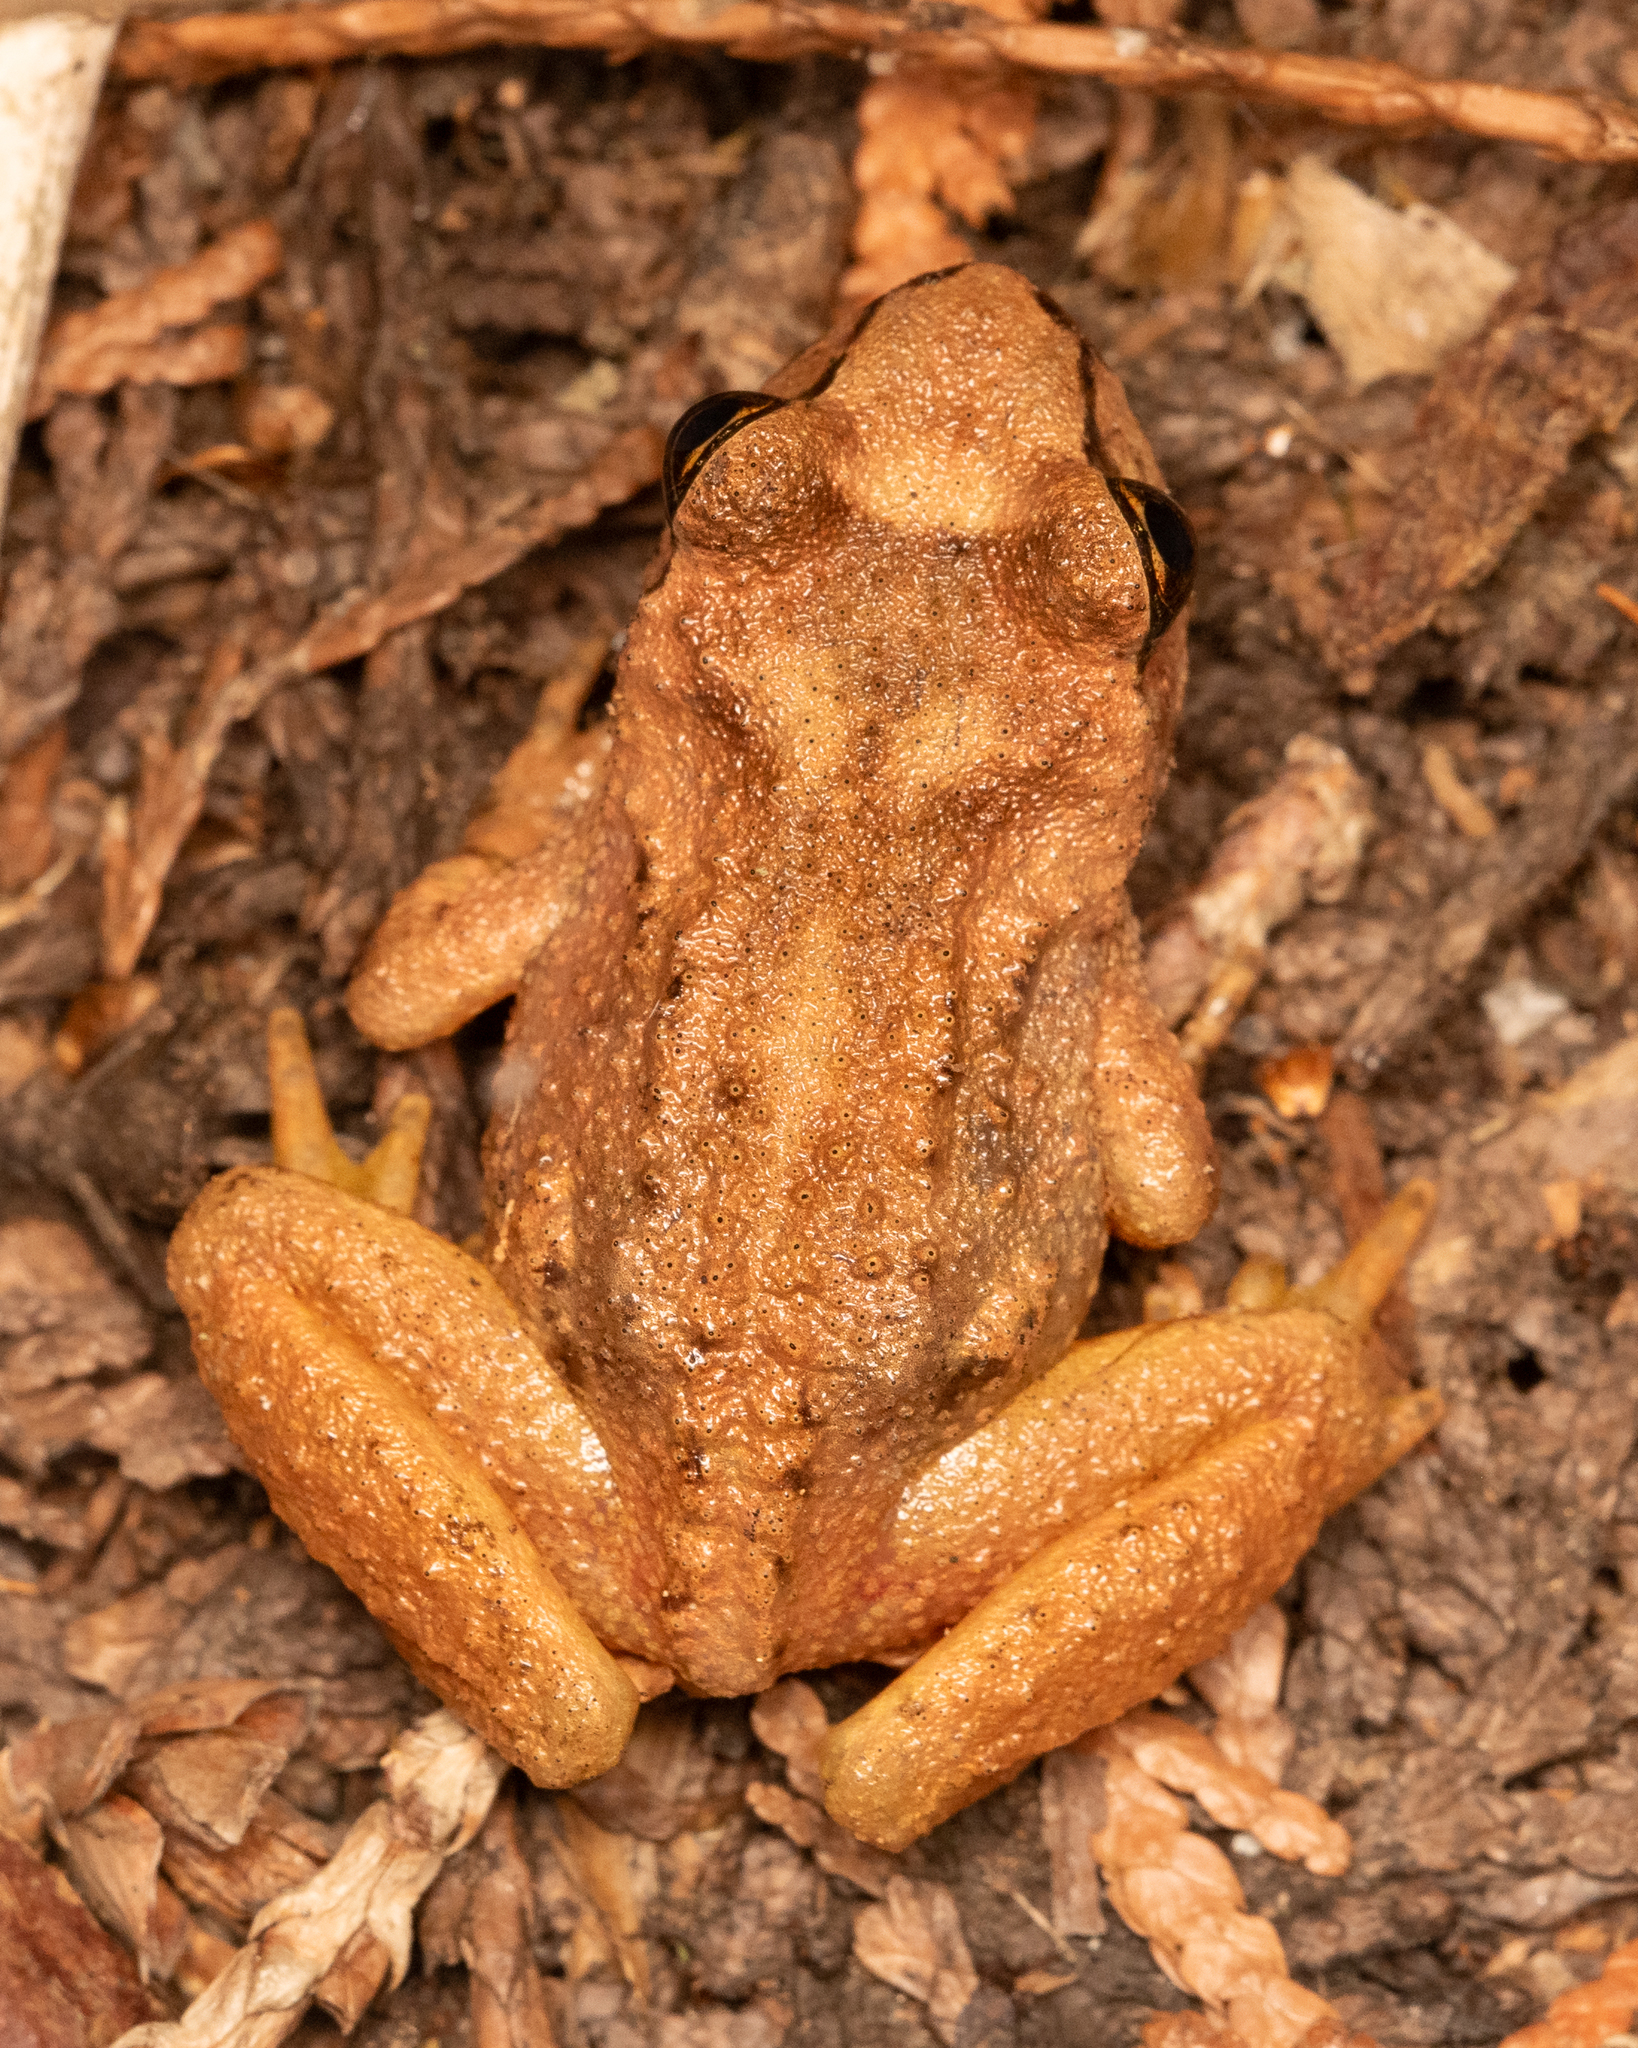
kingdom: Animalia
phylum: Chordata
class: Amphibia
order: Anura
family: Ascaphidae
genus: Ascaphus
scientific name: Ascaphus montanus
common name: Rocky mountain tailed frog
